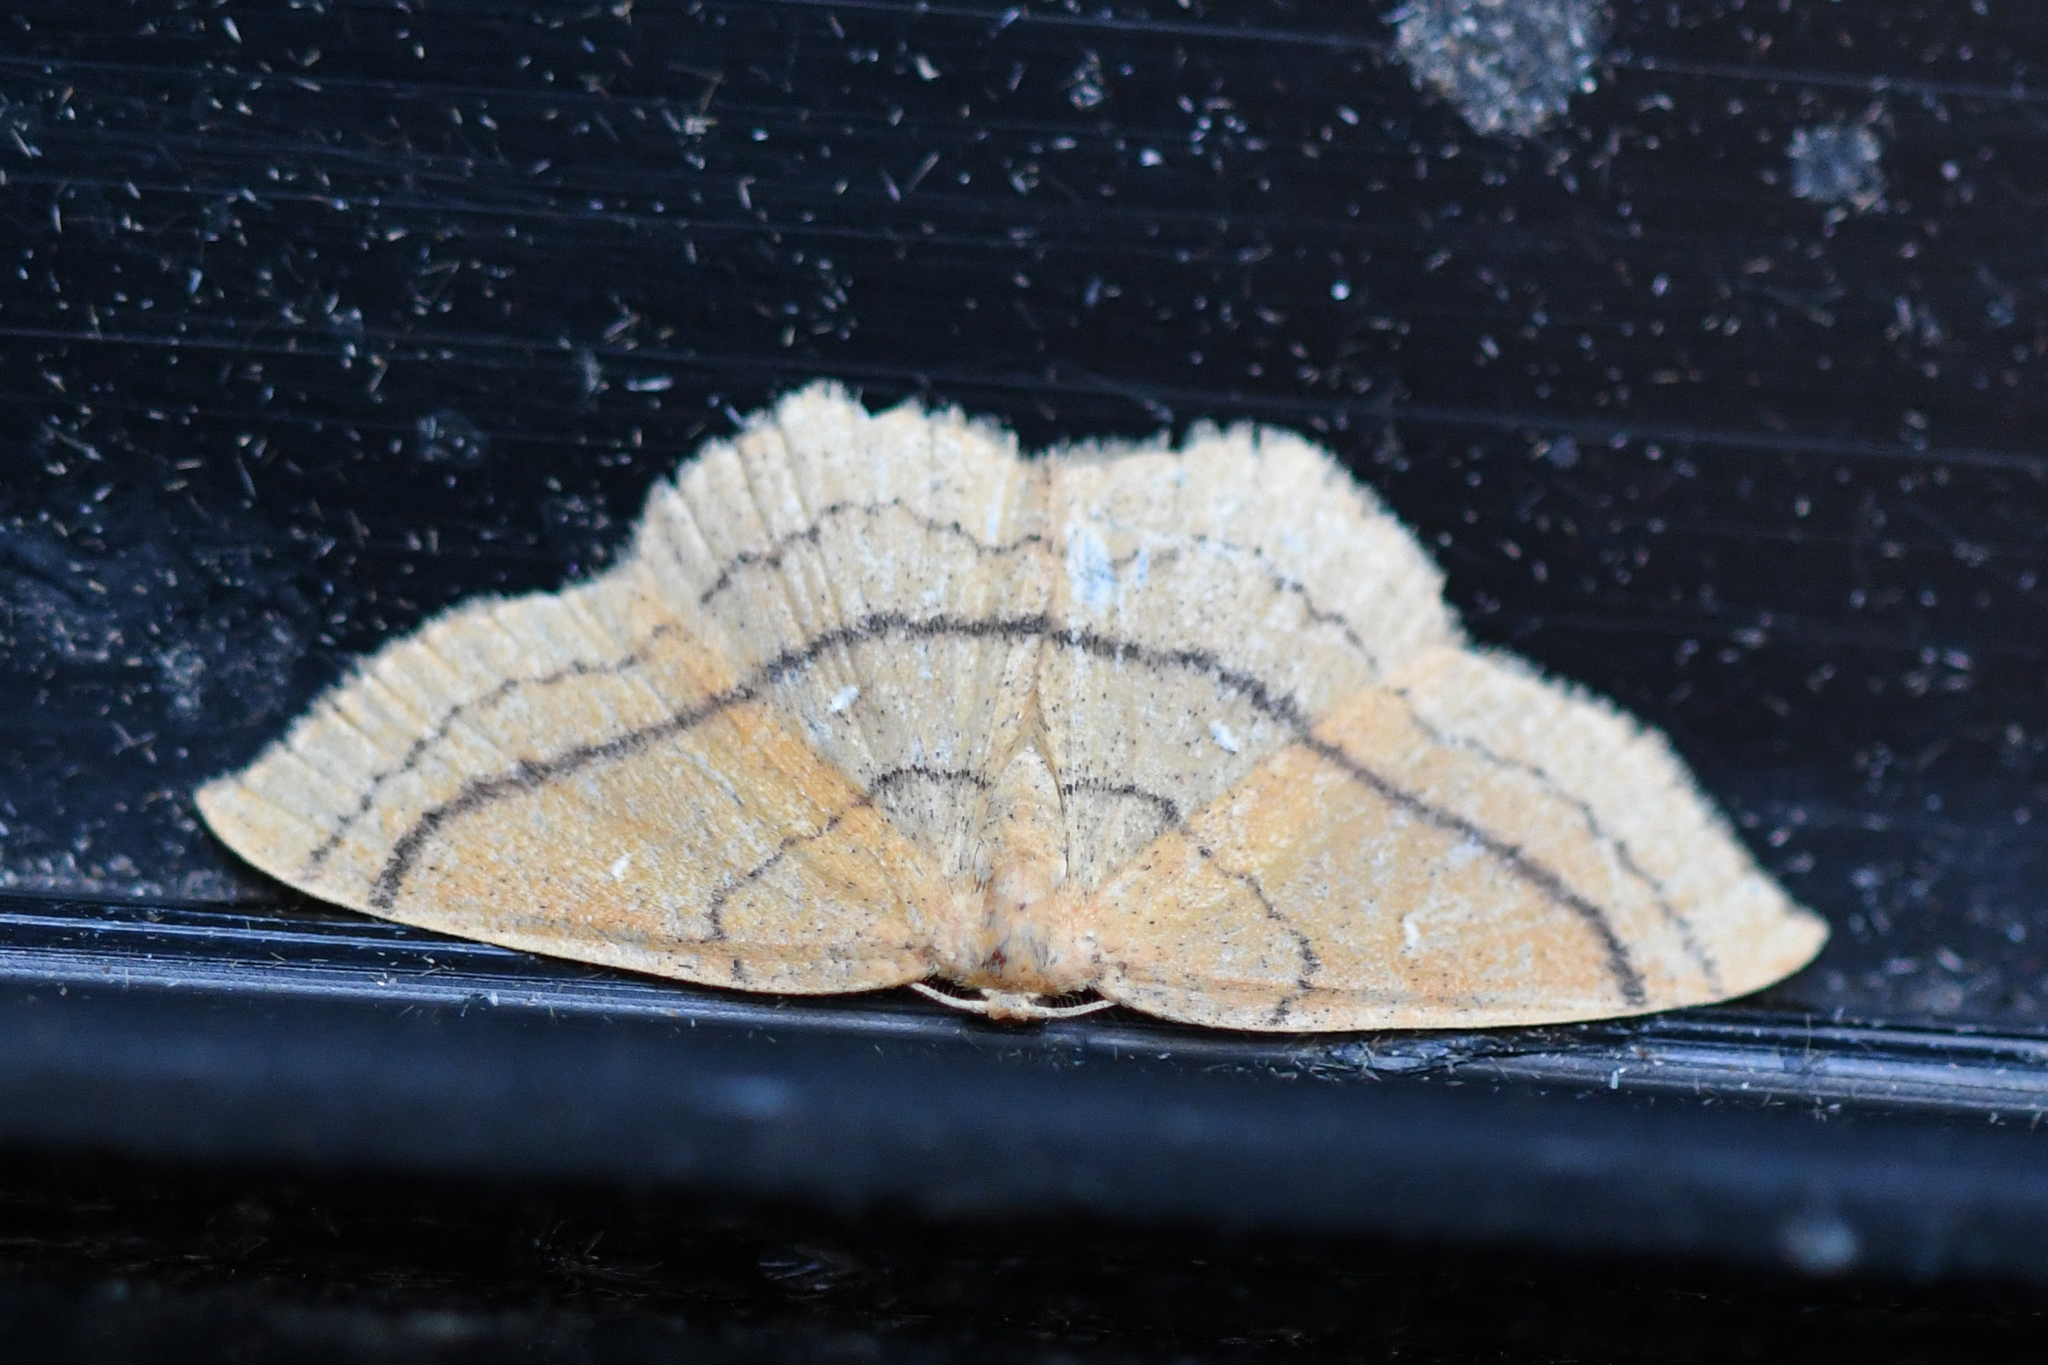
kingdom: Animalia
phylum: Arthropoda
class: Insecta
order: Lepidoptera
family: Geometridae
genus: Cyclophora
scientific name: Cyclophora linearia
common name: Clay triple-lines
